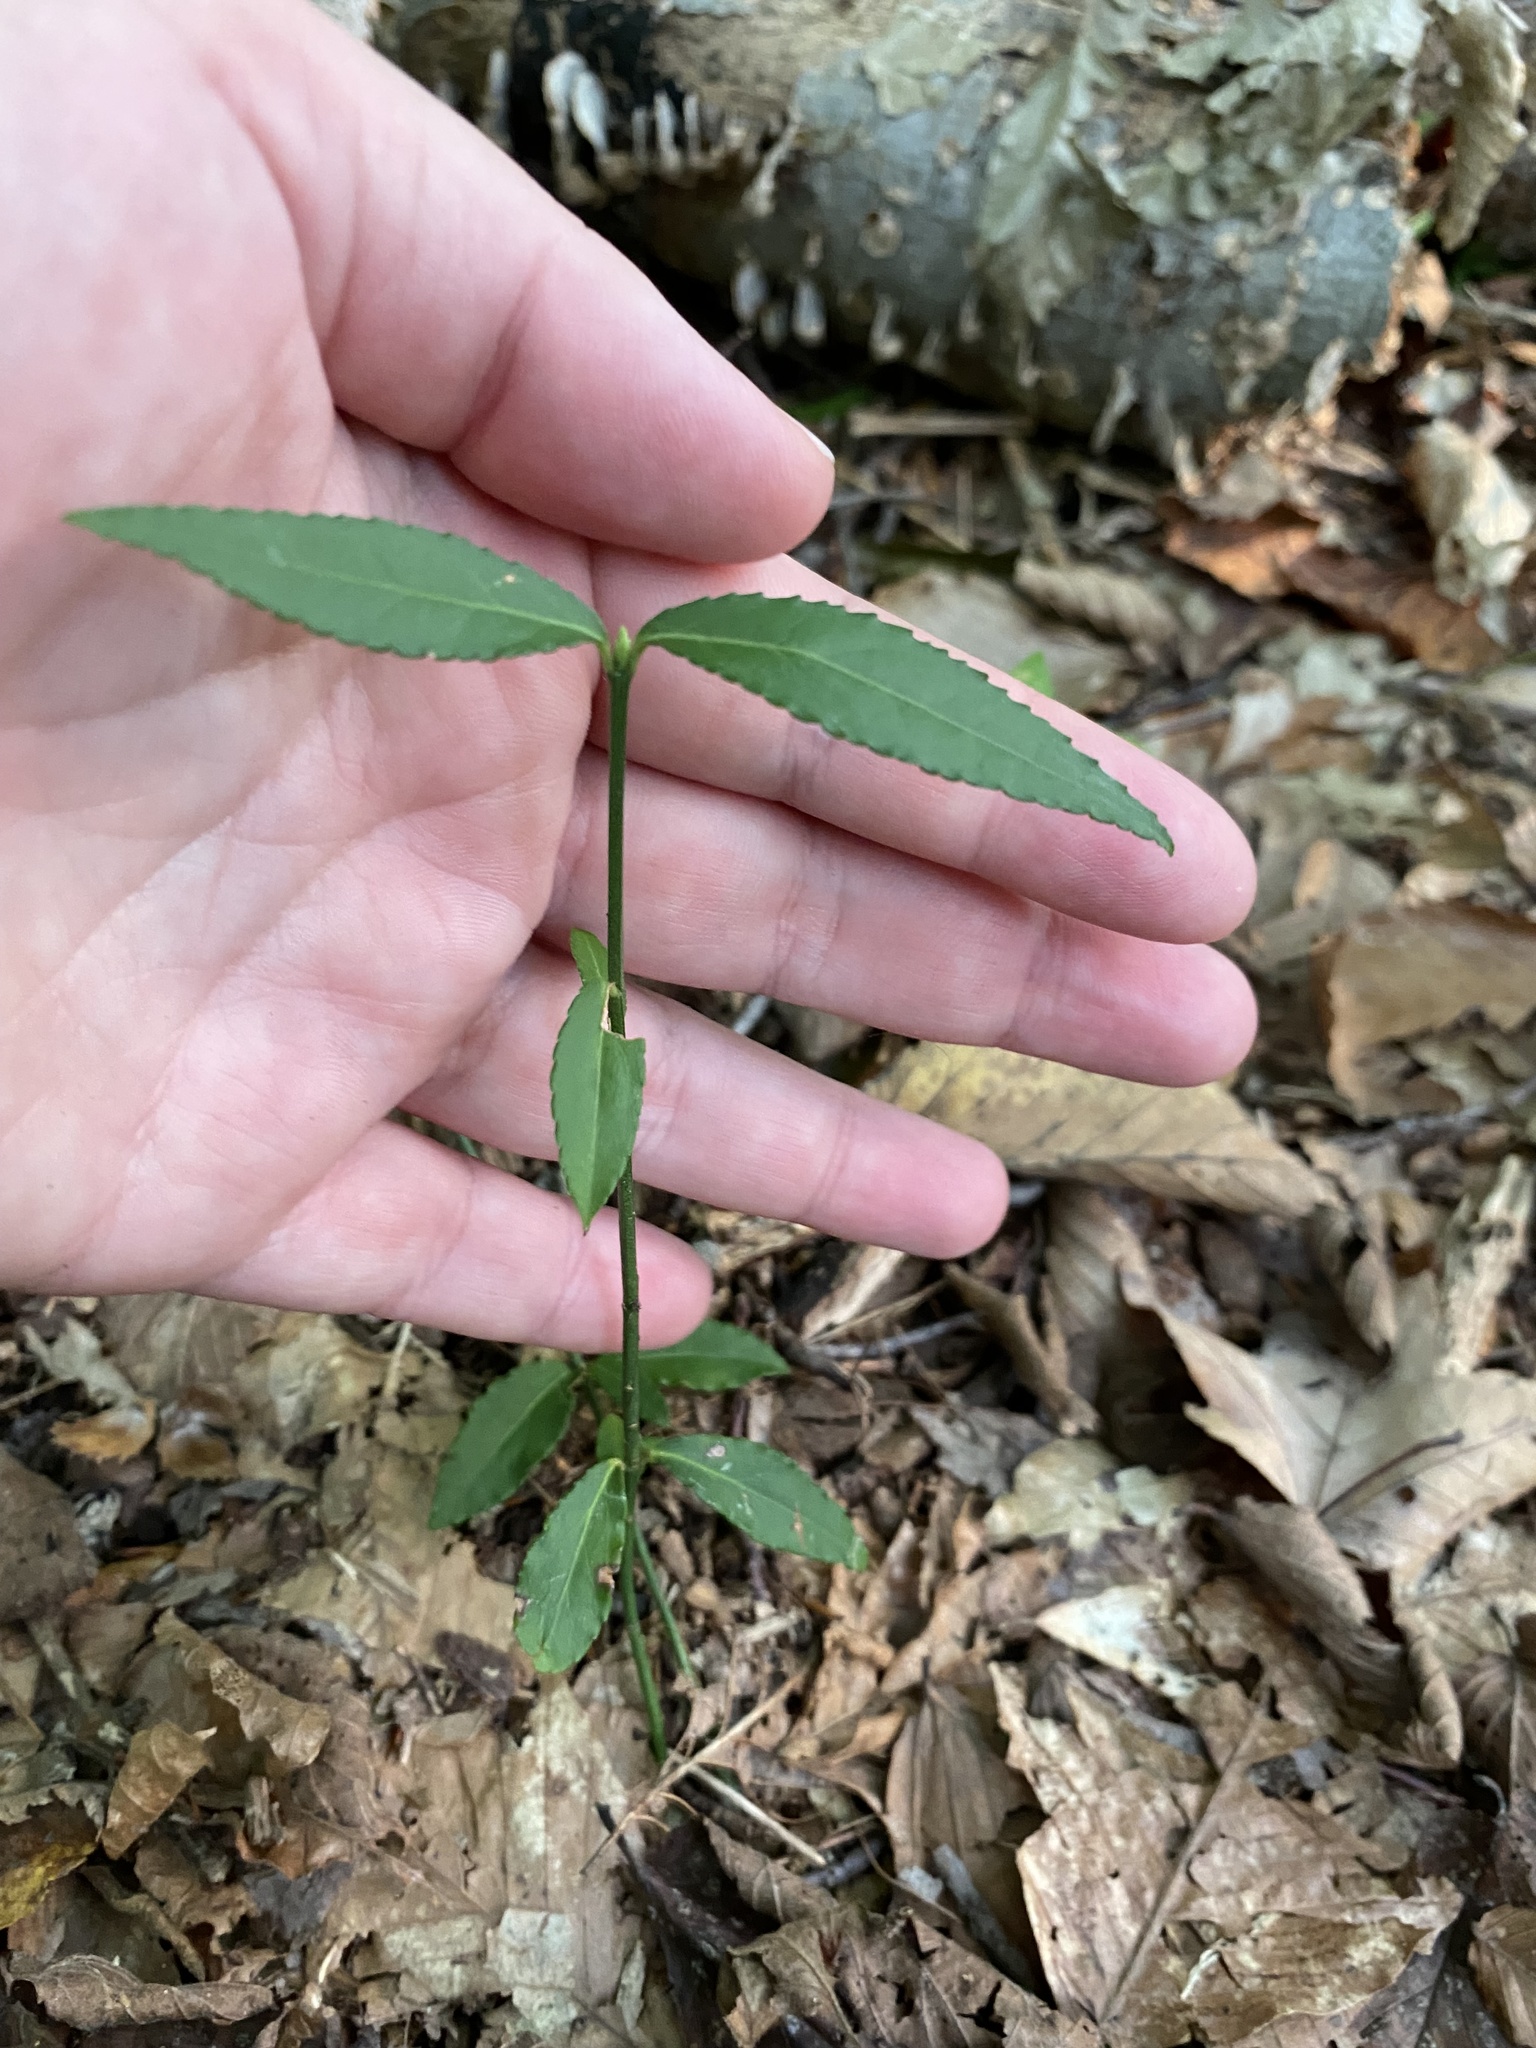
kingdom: Plantae
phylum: Tracheophyta
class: Magnoliopsida
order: Celastrales
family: Celastraceae
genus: Euonymus
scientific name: Euonymus americanus
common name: Bursting-heart
